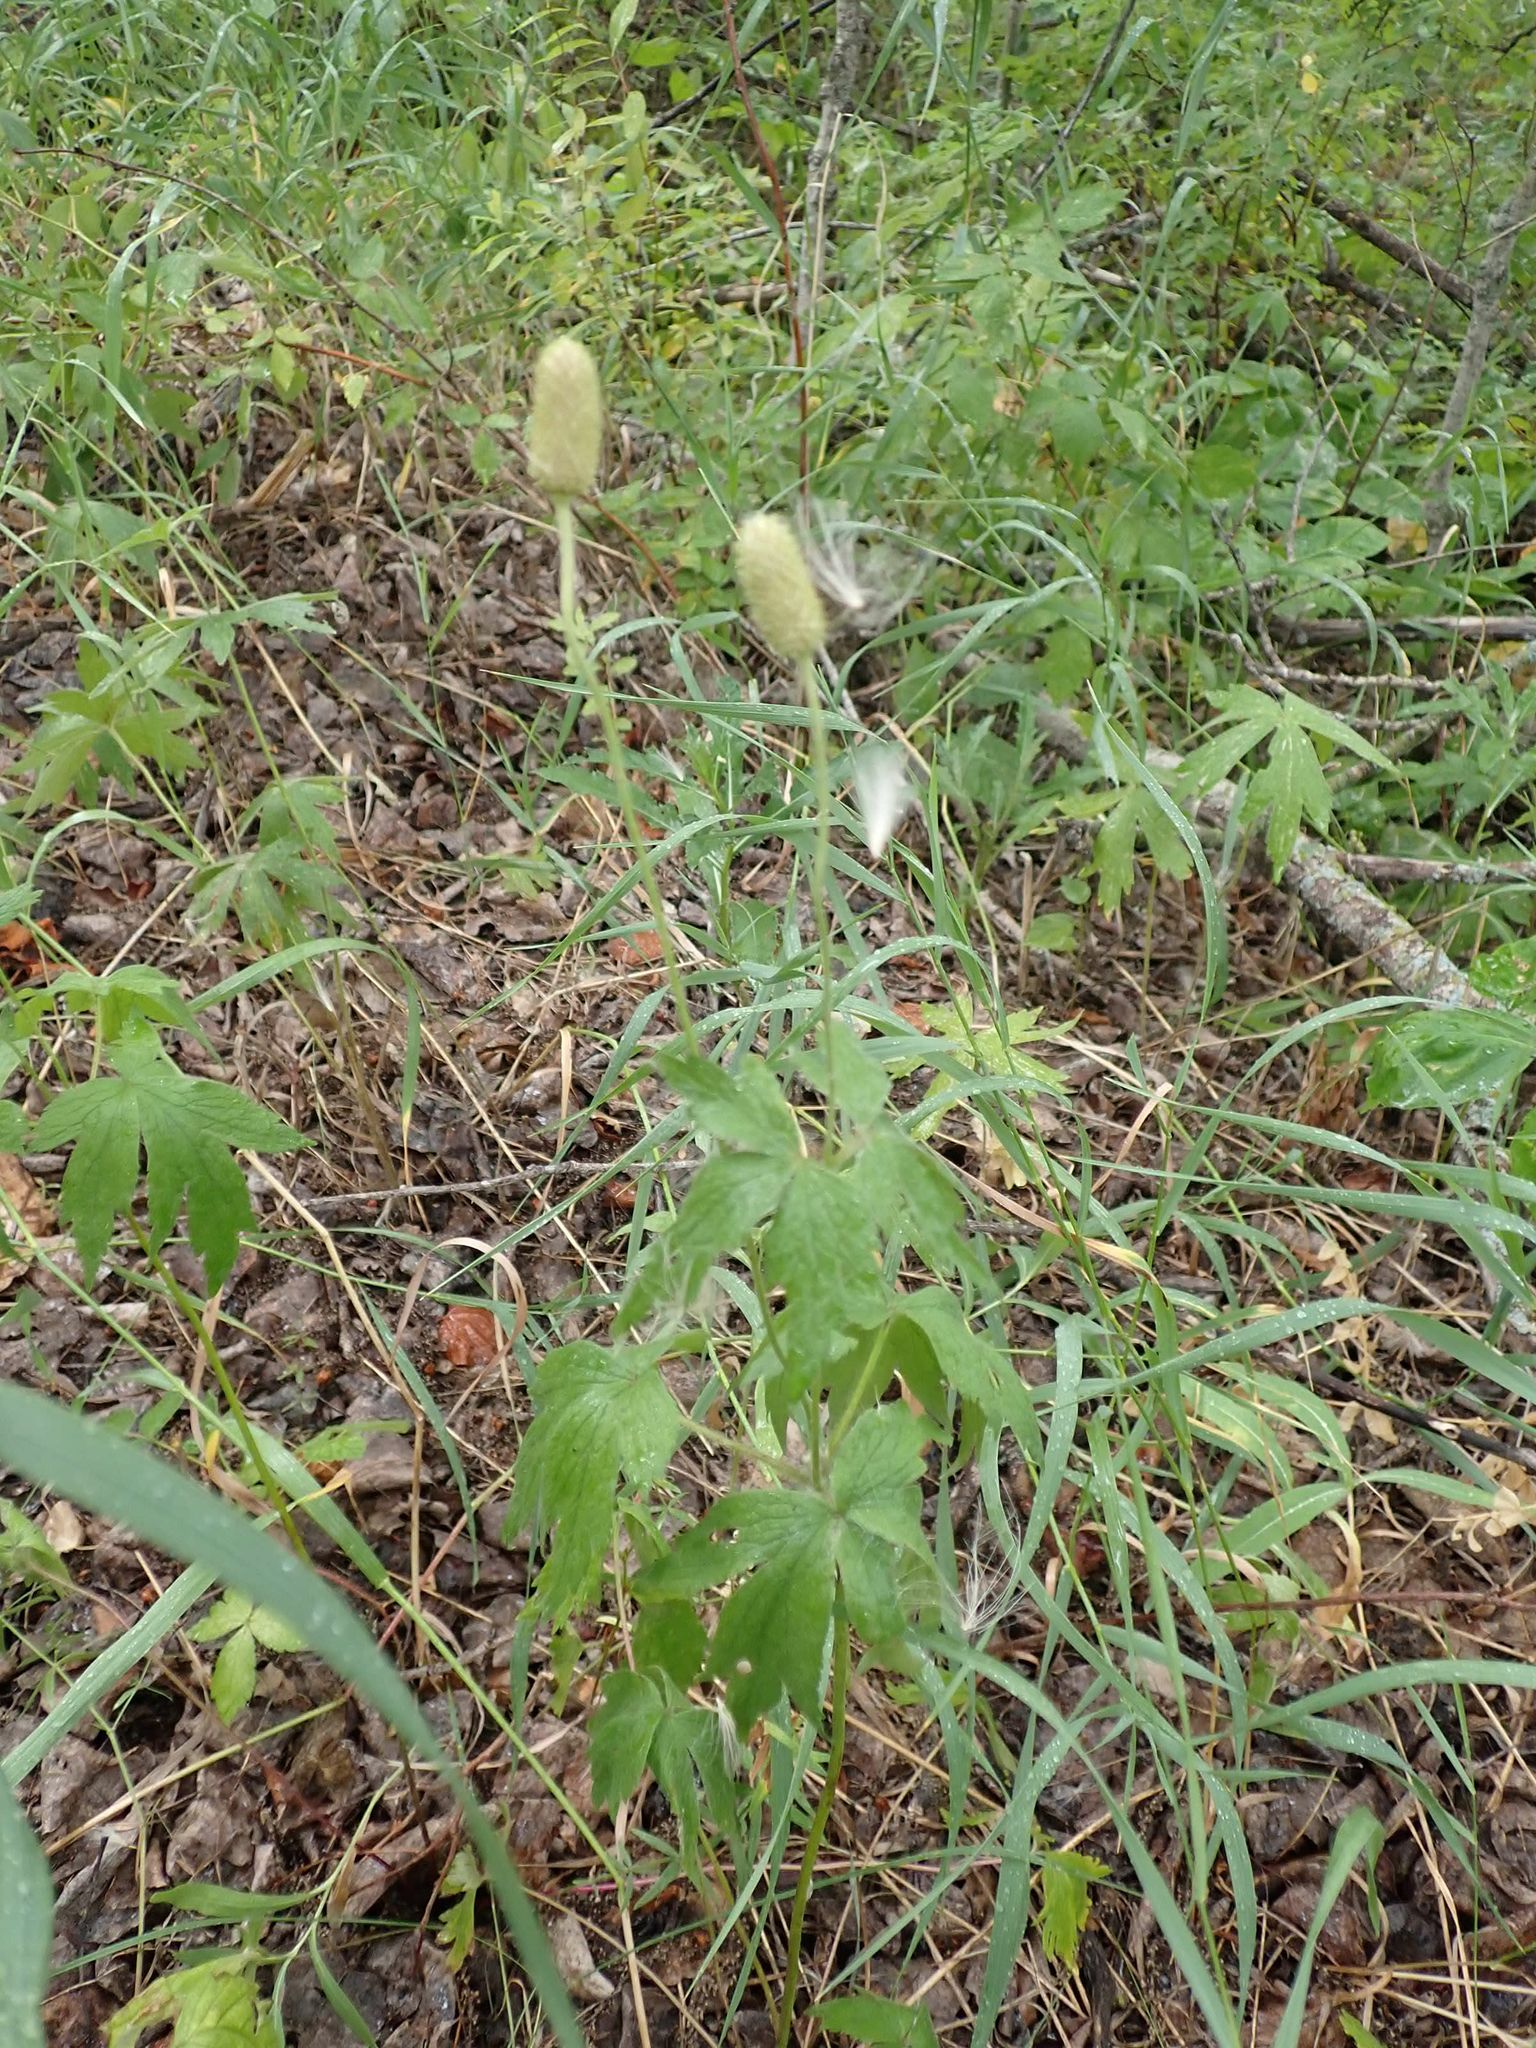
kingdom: Plantae
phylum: Tracheophyta
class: Magnoliopsida
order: Ranunculales
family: Ranunculaceae
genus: Anemone
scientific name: Anemone virginiana
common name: Tall anemone
